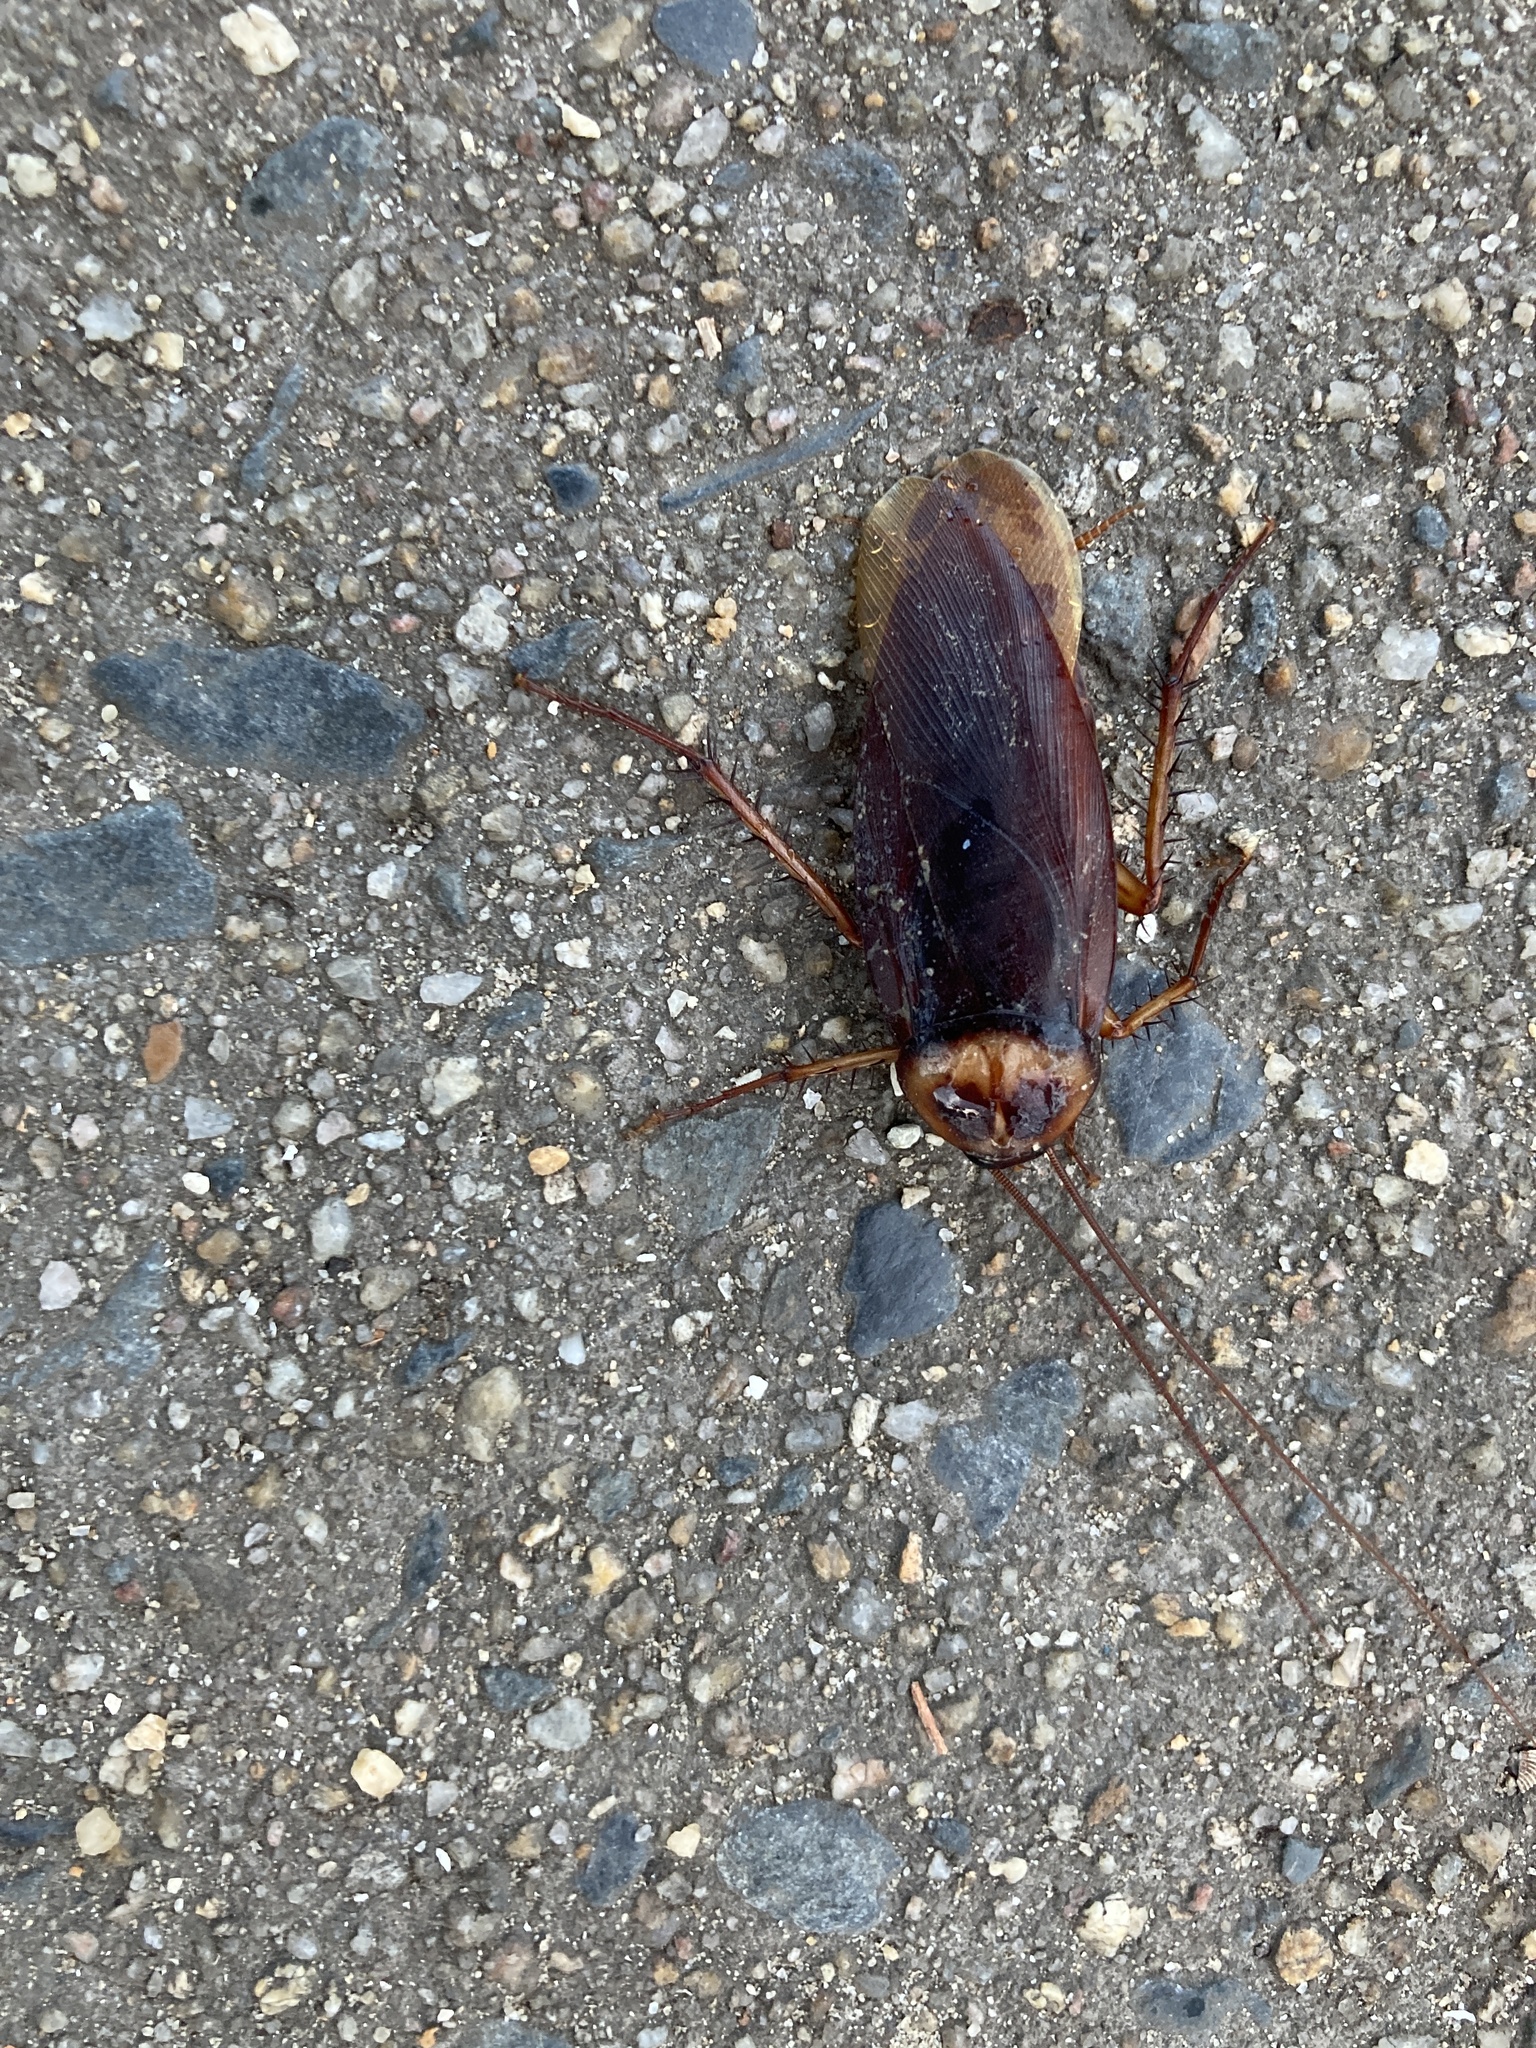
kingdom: Animalia
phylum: Arthropoda
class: Insecta
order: Blattodea
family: Blattidae
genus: Periplaneta
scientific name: Periplaneta americana
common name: American cockroach
